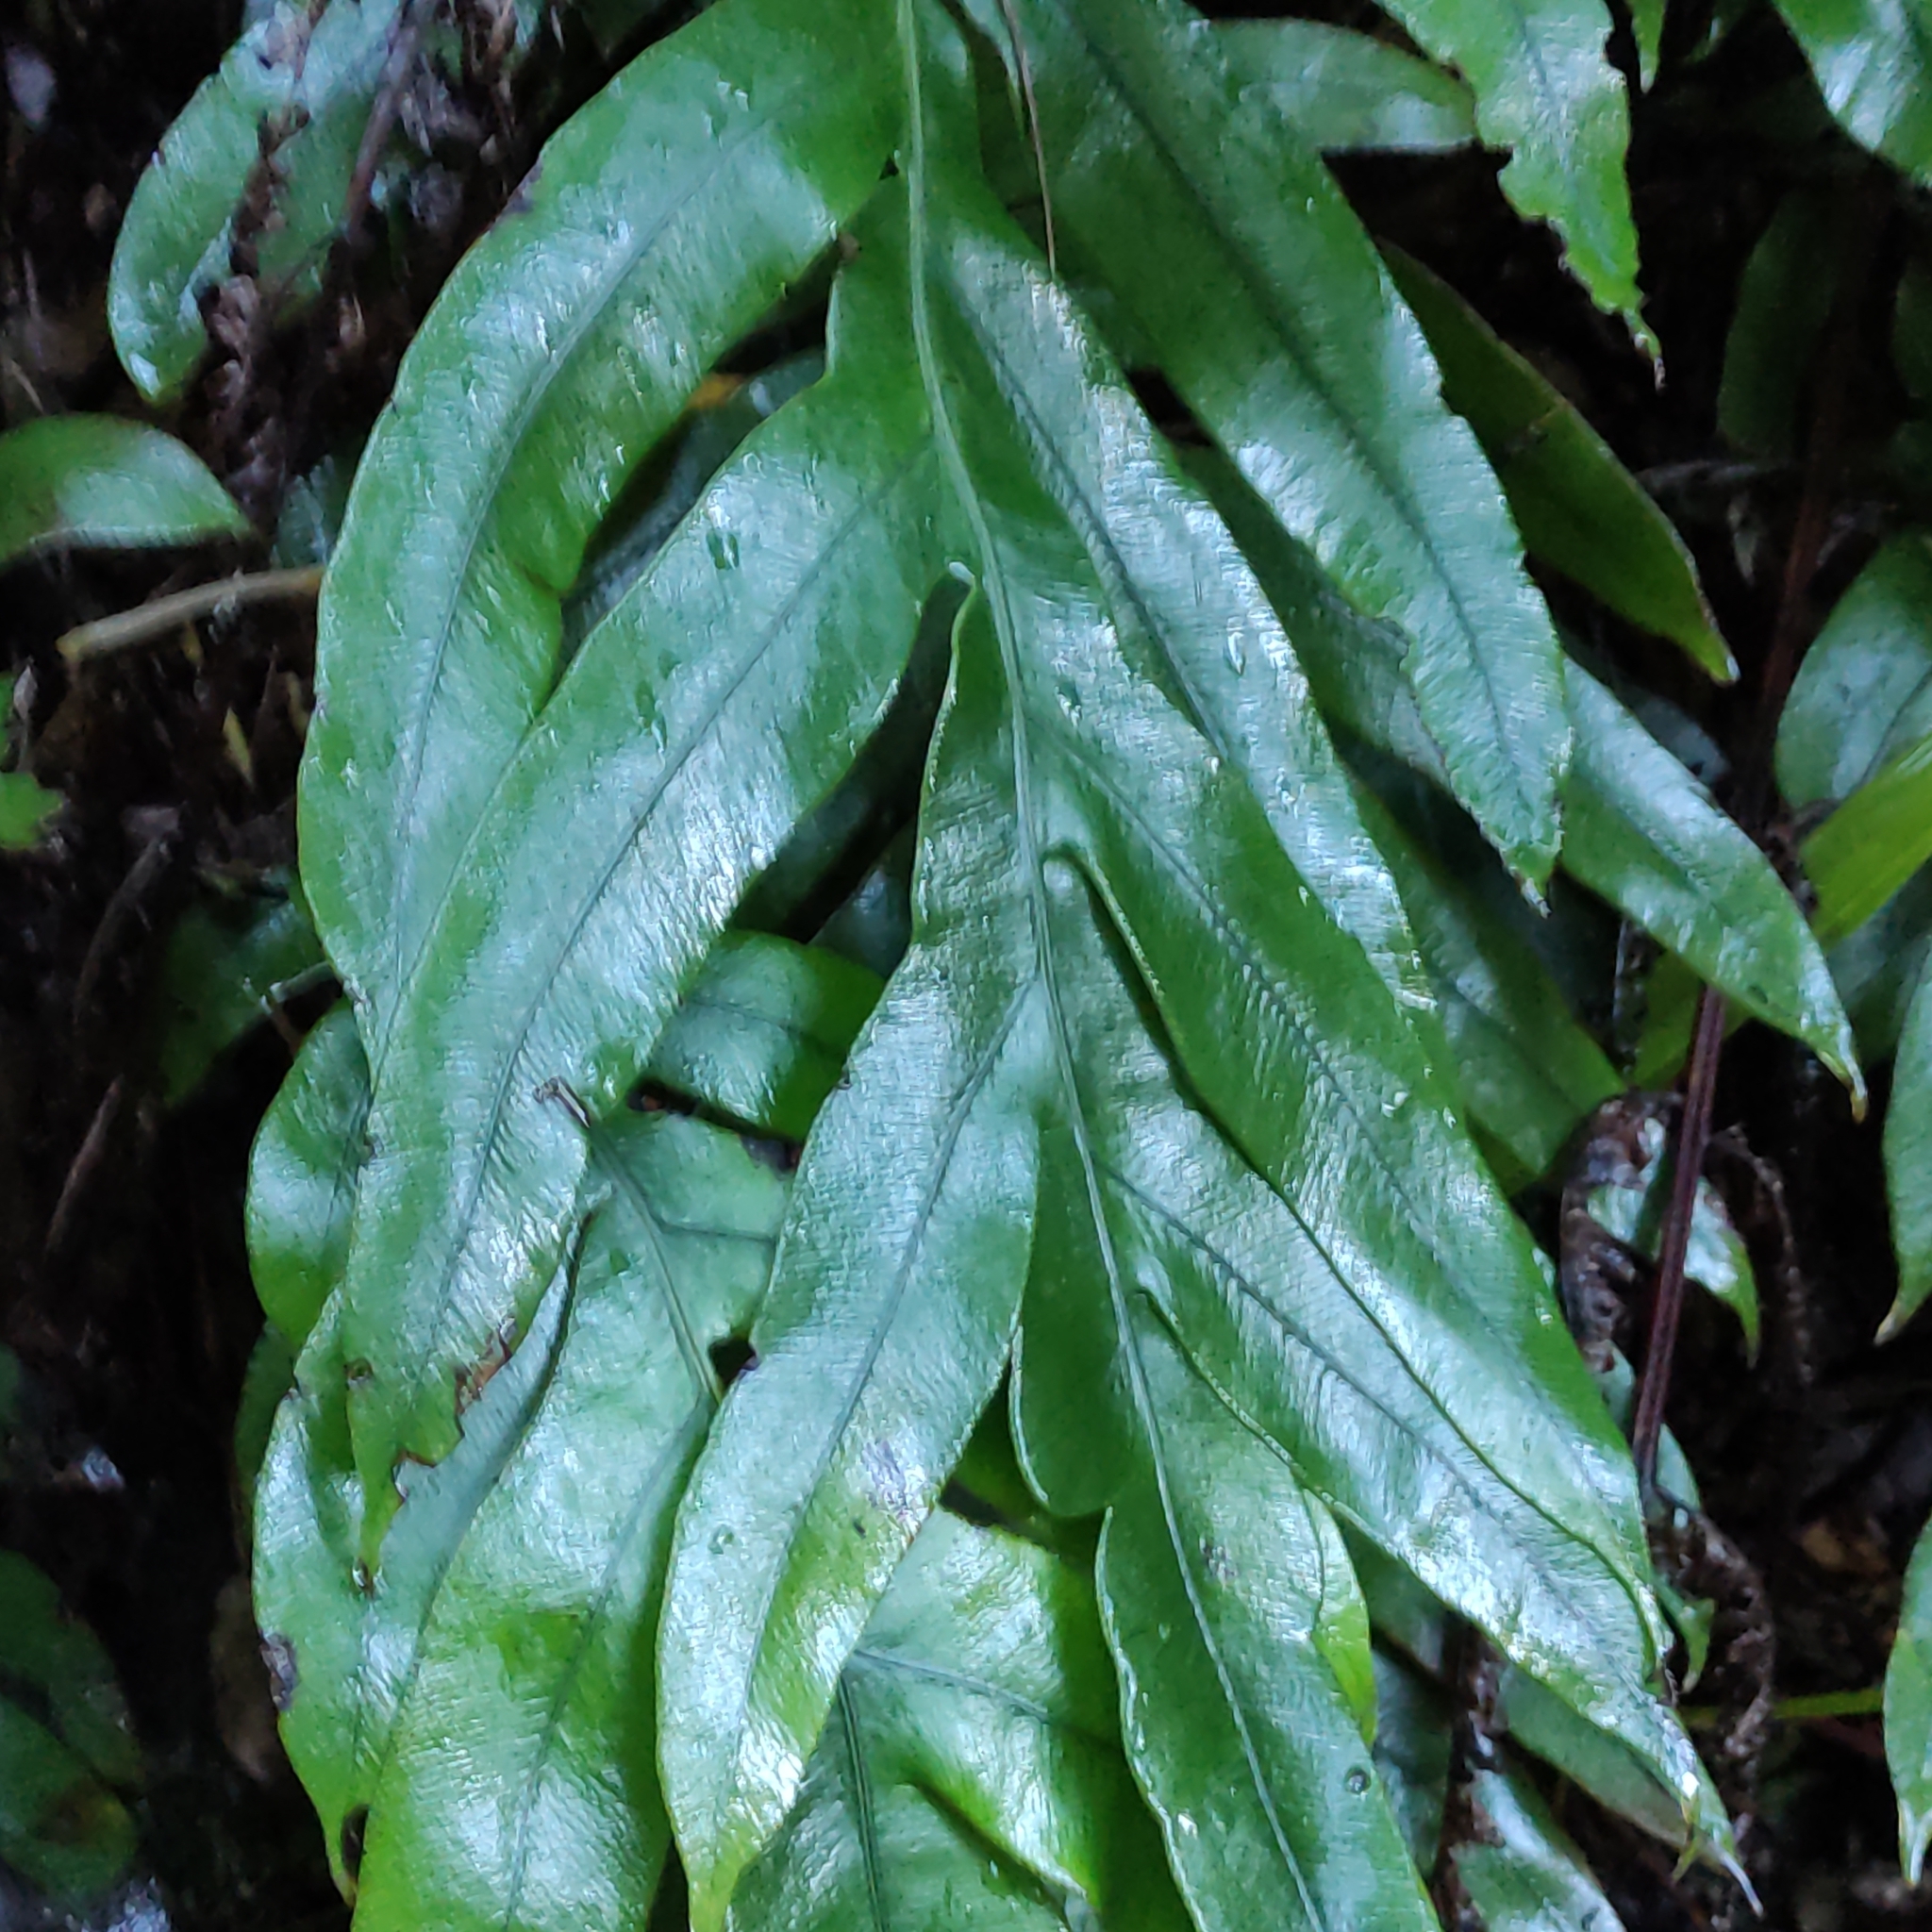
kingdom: Plantae
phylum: Tracheophyta
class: Polypodiopsida
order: Polypodiales
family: Blechnaceae
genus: Austroblechnum
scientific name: Austroblechnum colensoi
